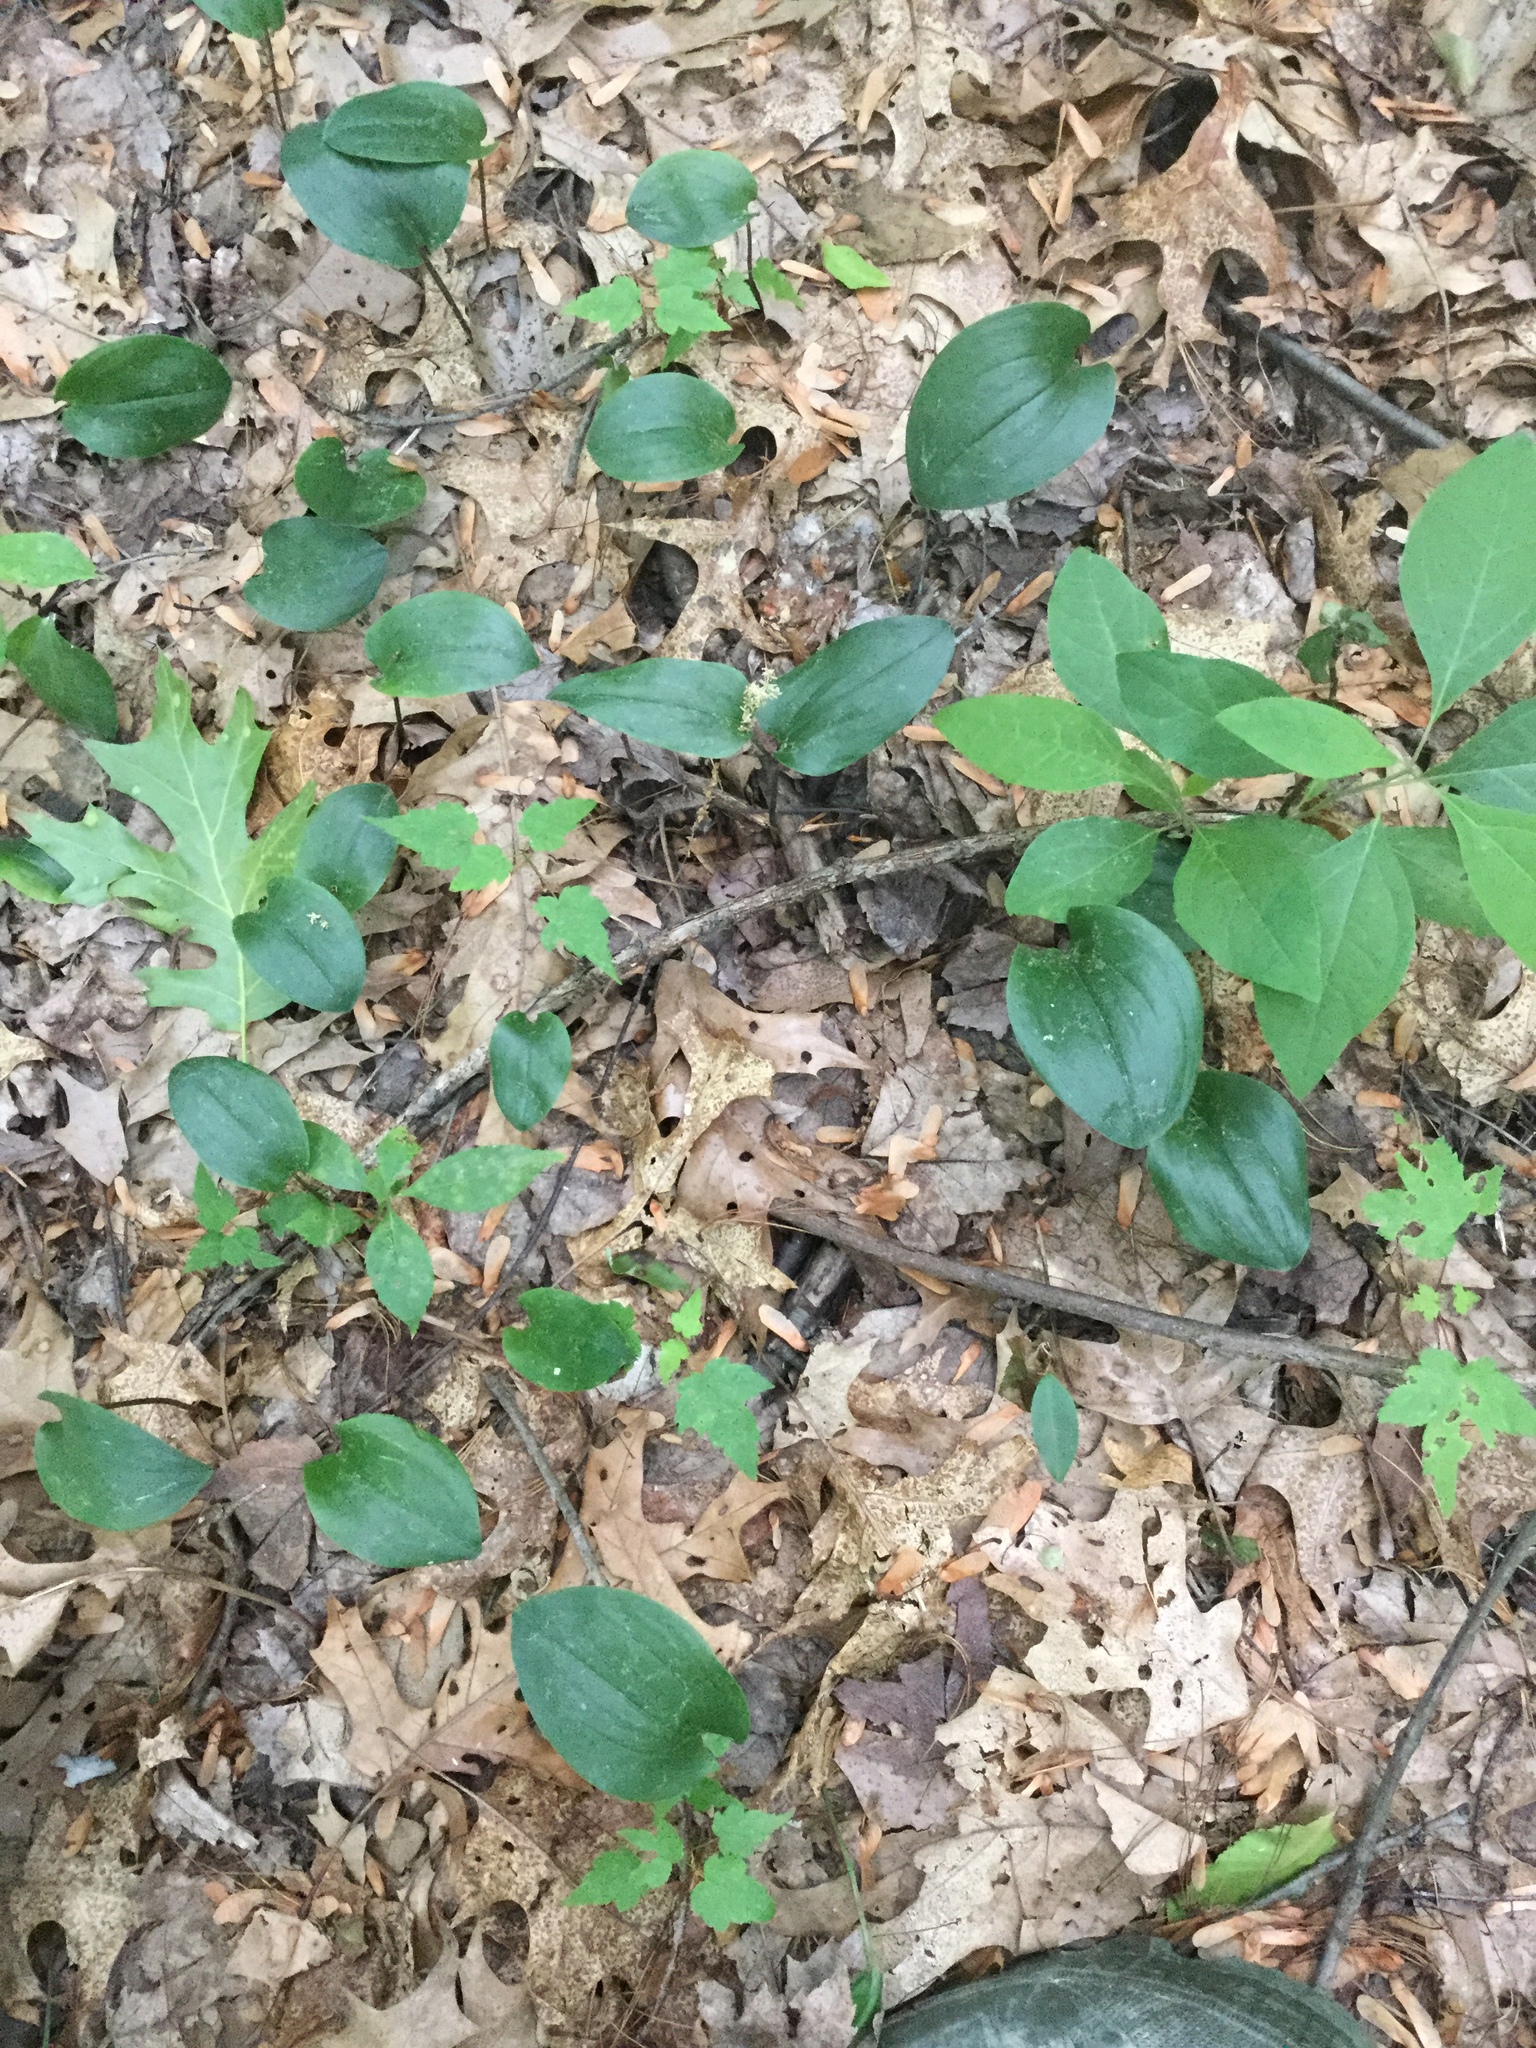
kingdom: Plantae
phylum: Tracheophyta
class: Liliopsida
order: Asparagales
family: Asparagaceae
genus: Maianthemum
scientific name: Maianthemum canadense
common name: False lily-of-the-valley
